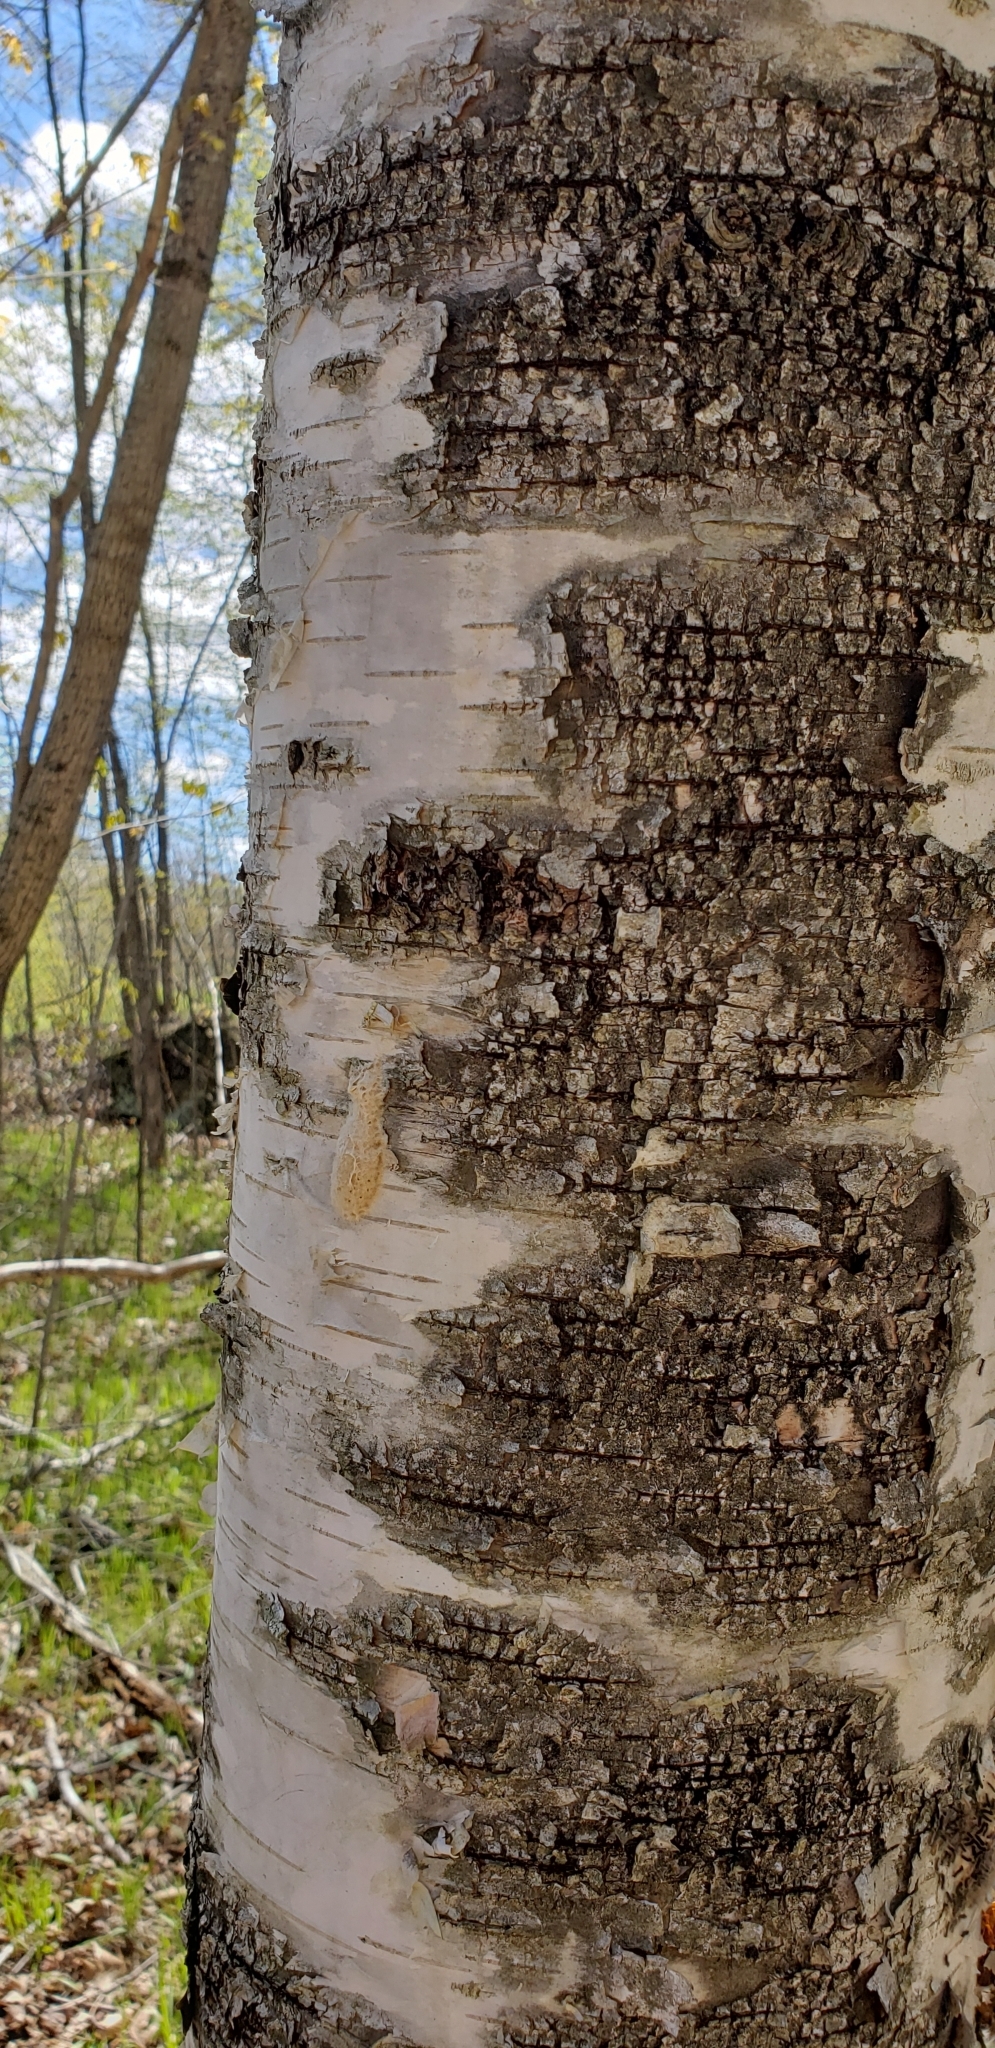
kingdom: Animalia
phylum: Arthropoda
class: Insecta
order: Lepidoptera
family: Erebidae
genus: Lymantria
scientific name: Lymantria dispar
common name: Gypsy moth
